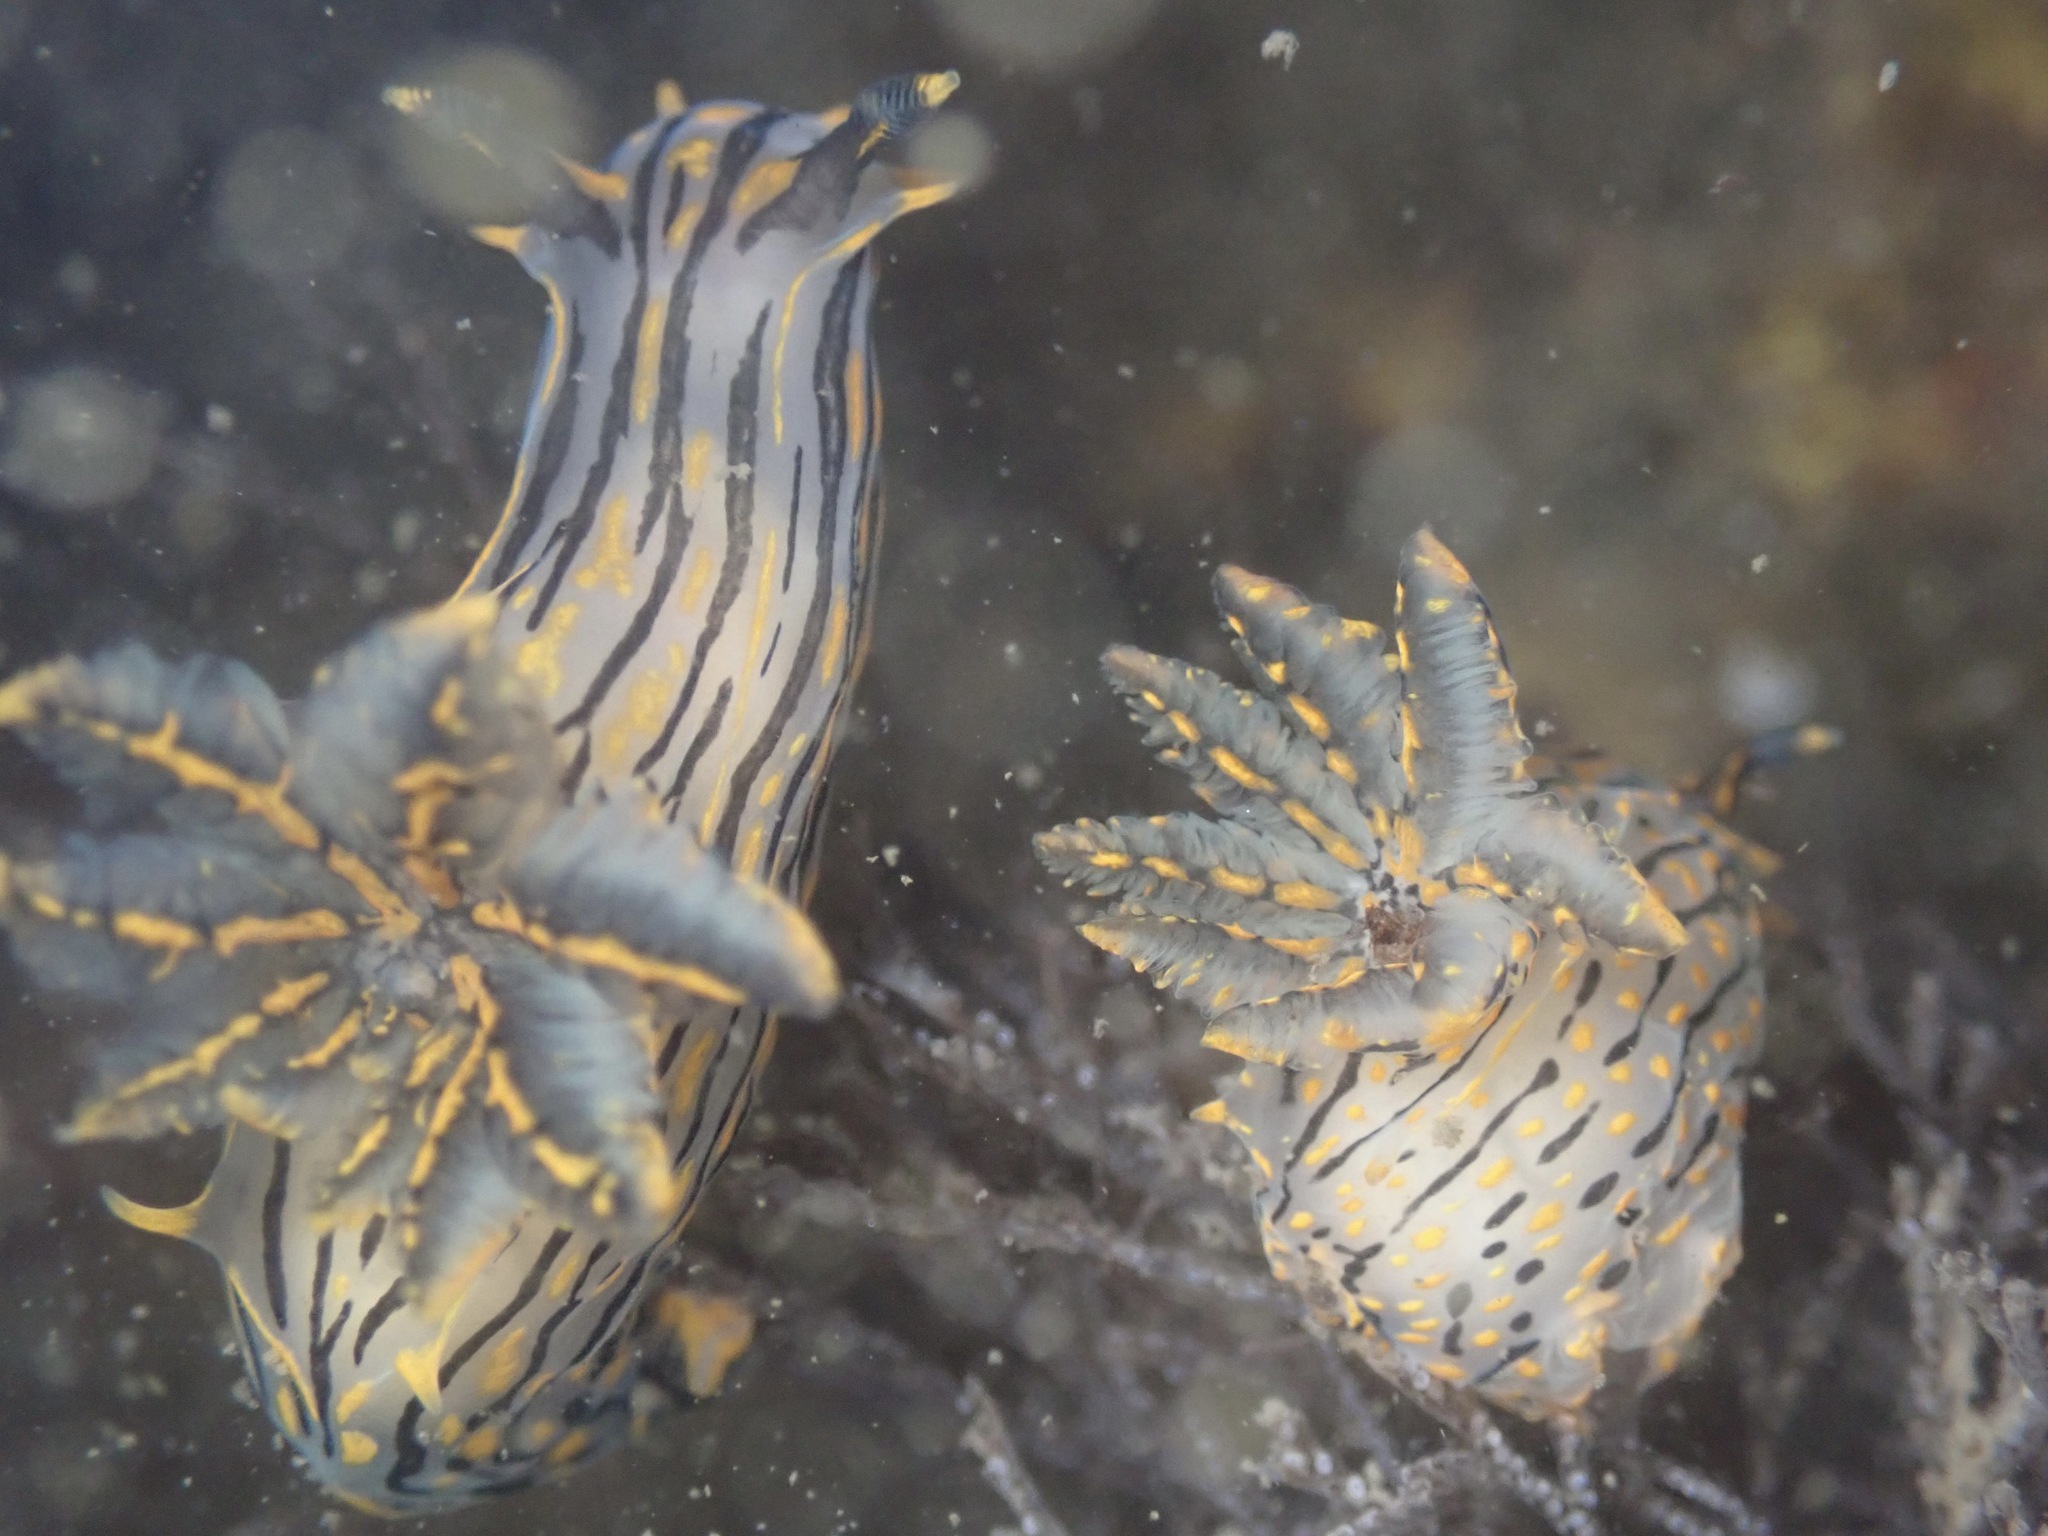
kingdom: Animalia
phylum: Mollusca
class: Gastropoda
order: Nudibranchia
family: Polyceridae
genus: Polycera
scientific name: Polycera atra
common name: Orange-spike polycera
